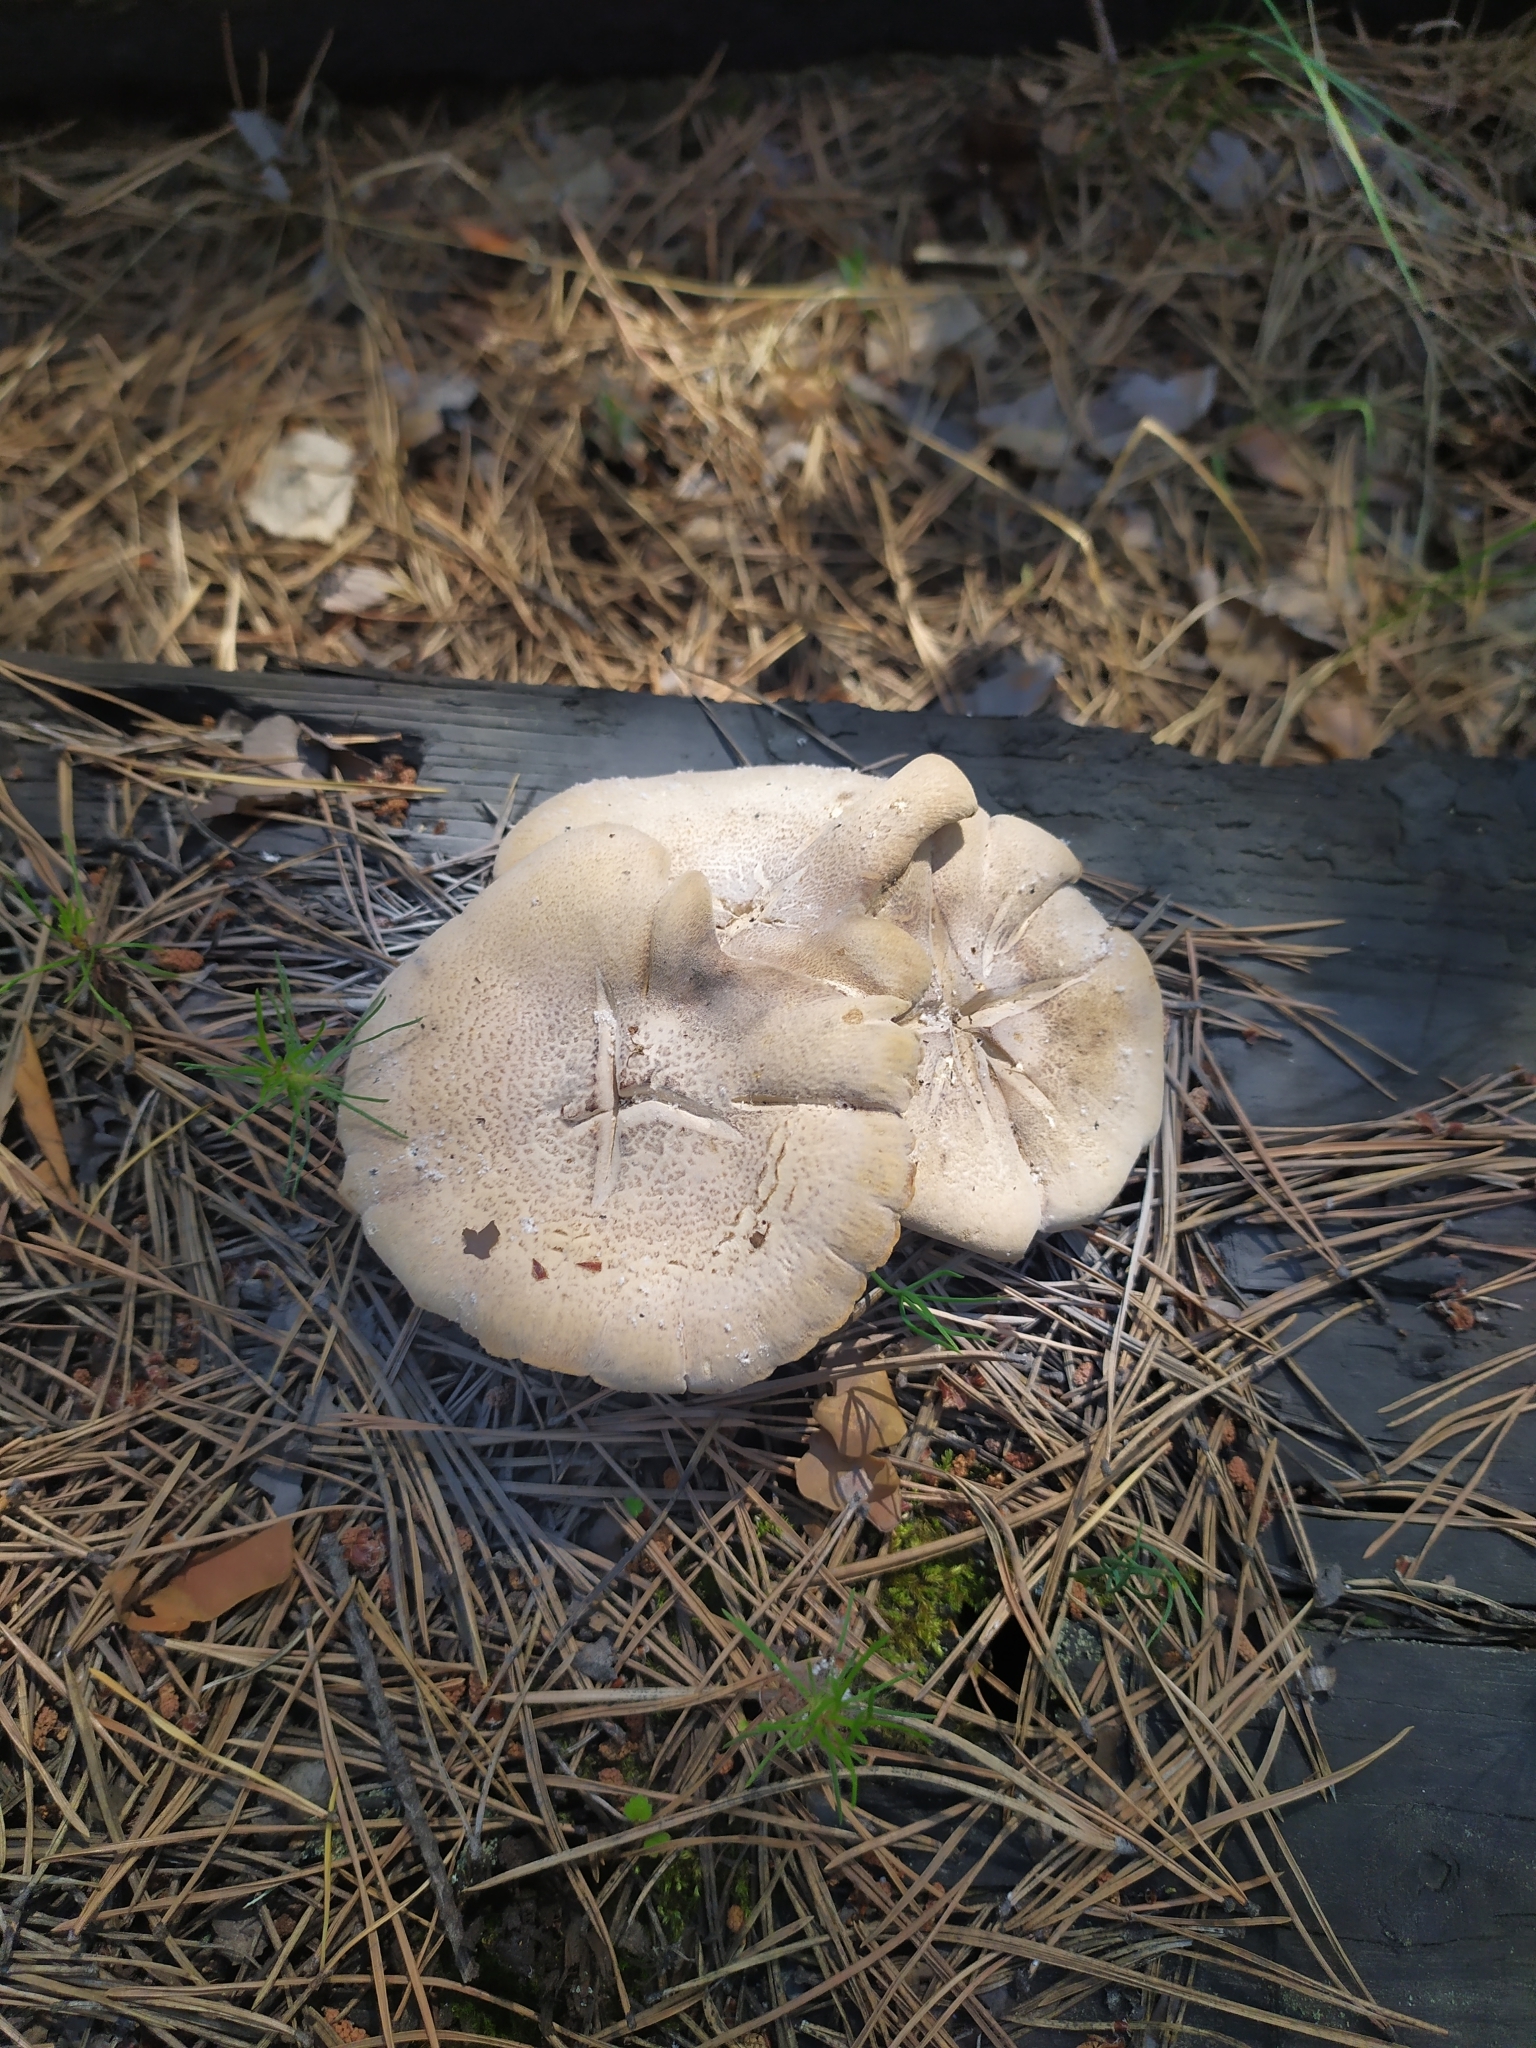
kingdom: Fungi
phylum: Basidiomycota
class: Agaricomycetes
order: Gloeophyllales
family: Gloeophyllaceae
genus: Neolentinus
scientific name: Neolentinus lepideus
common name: Scaly sawgill
